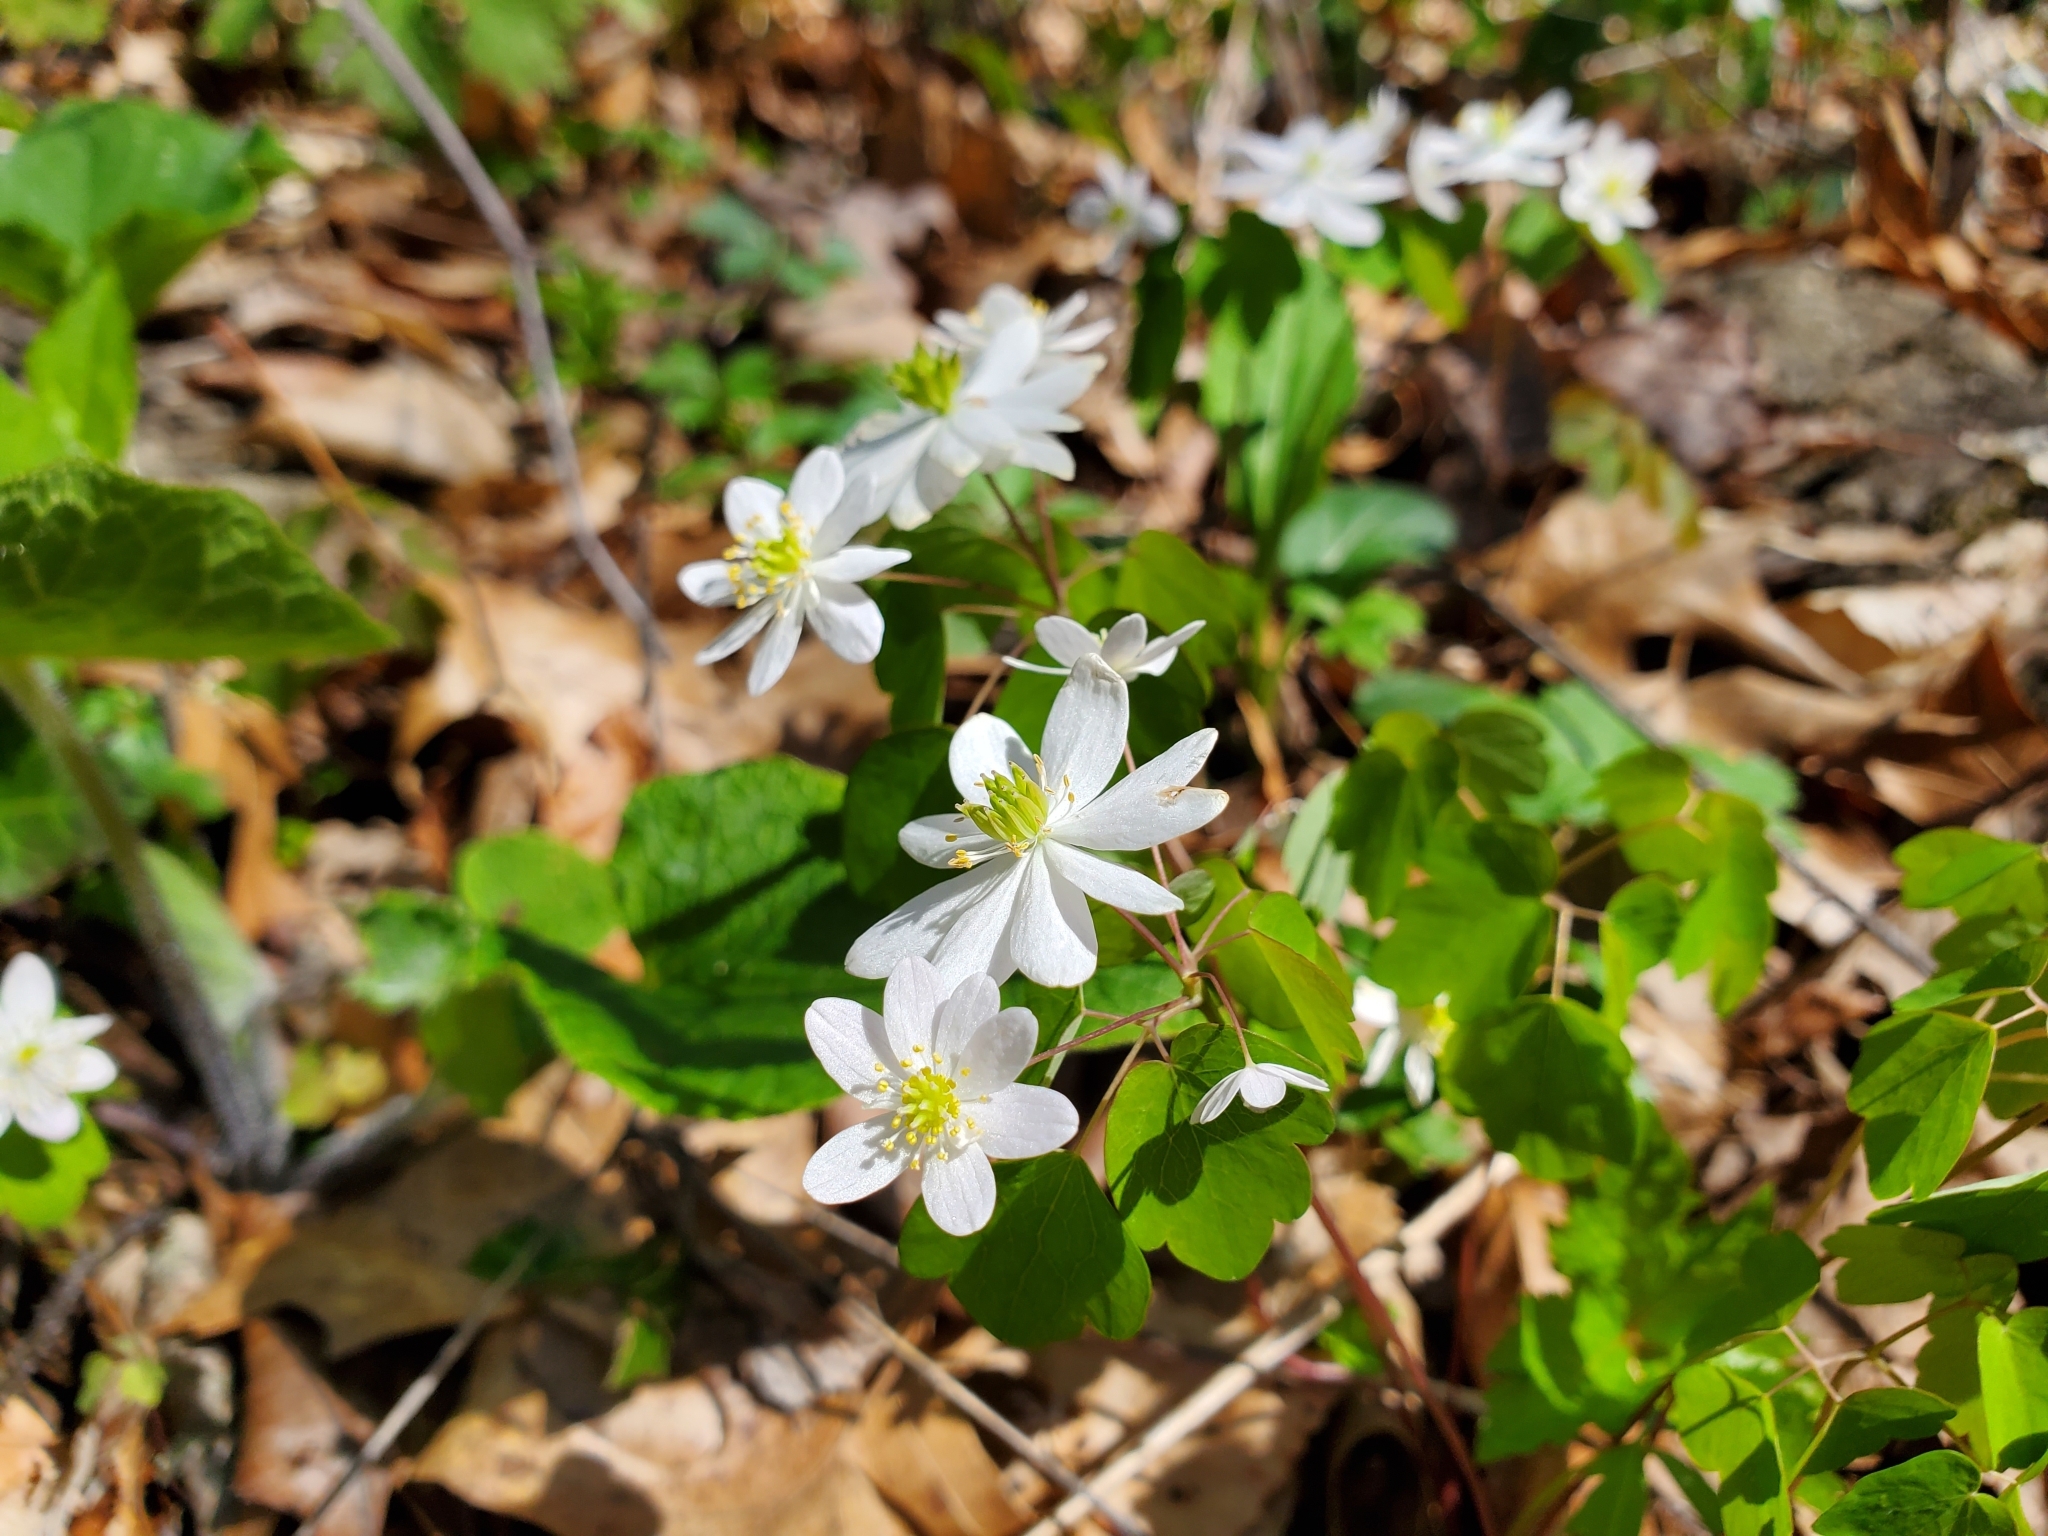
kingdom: Plantae
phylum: Tracheophyta
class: Magnoliopsida
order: Ranunculales
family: Ranunculaceae
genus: Thalictrum
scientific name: Thalictrum thalictroides
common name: Rue-anemone
